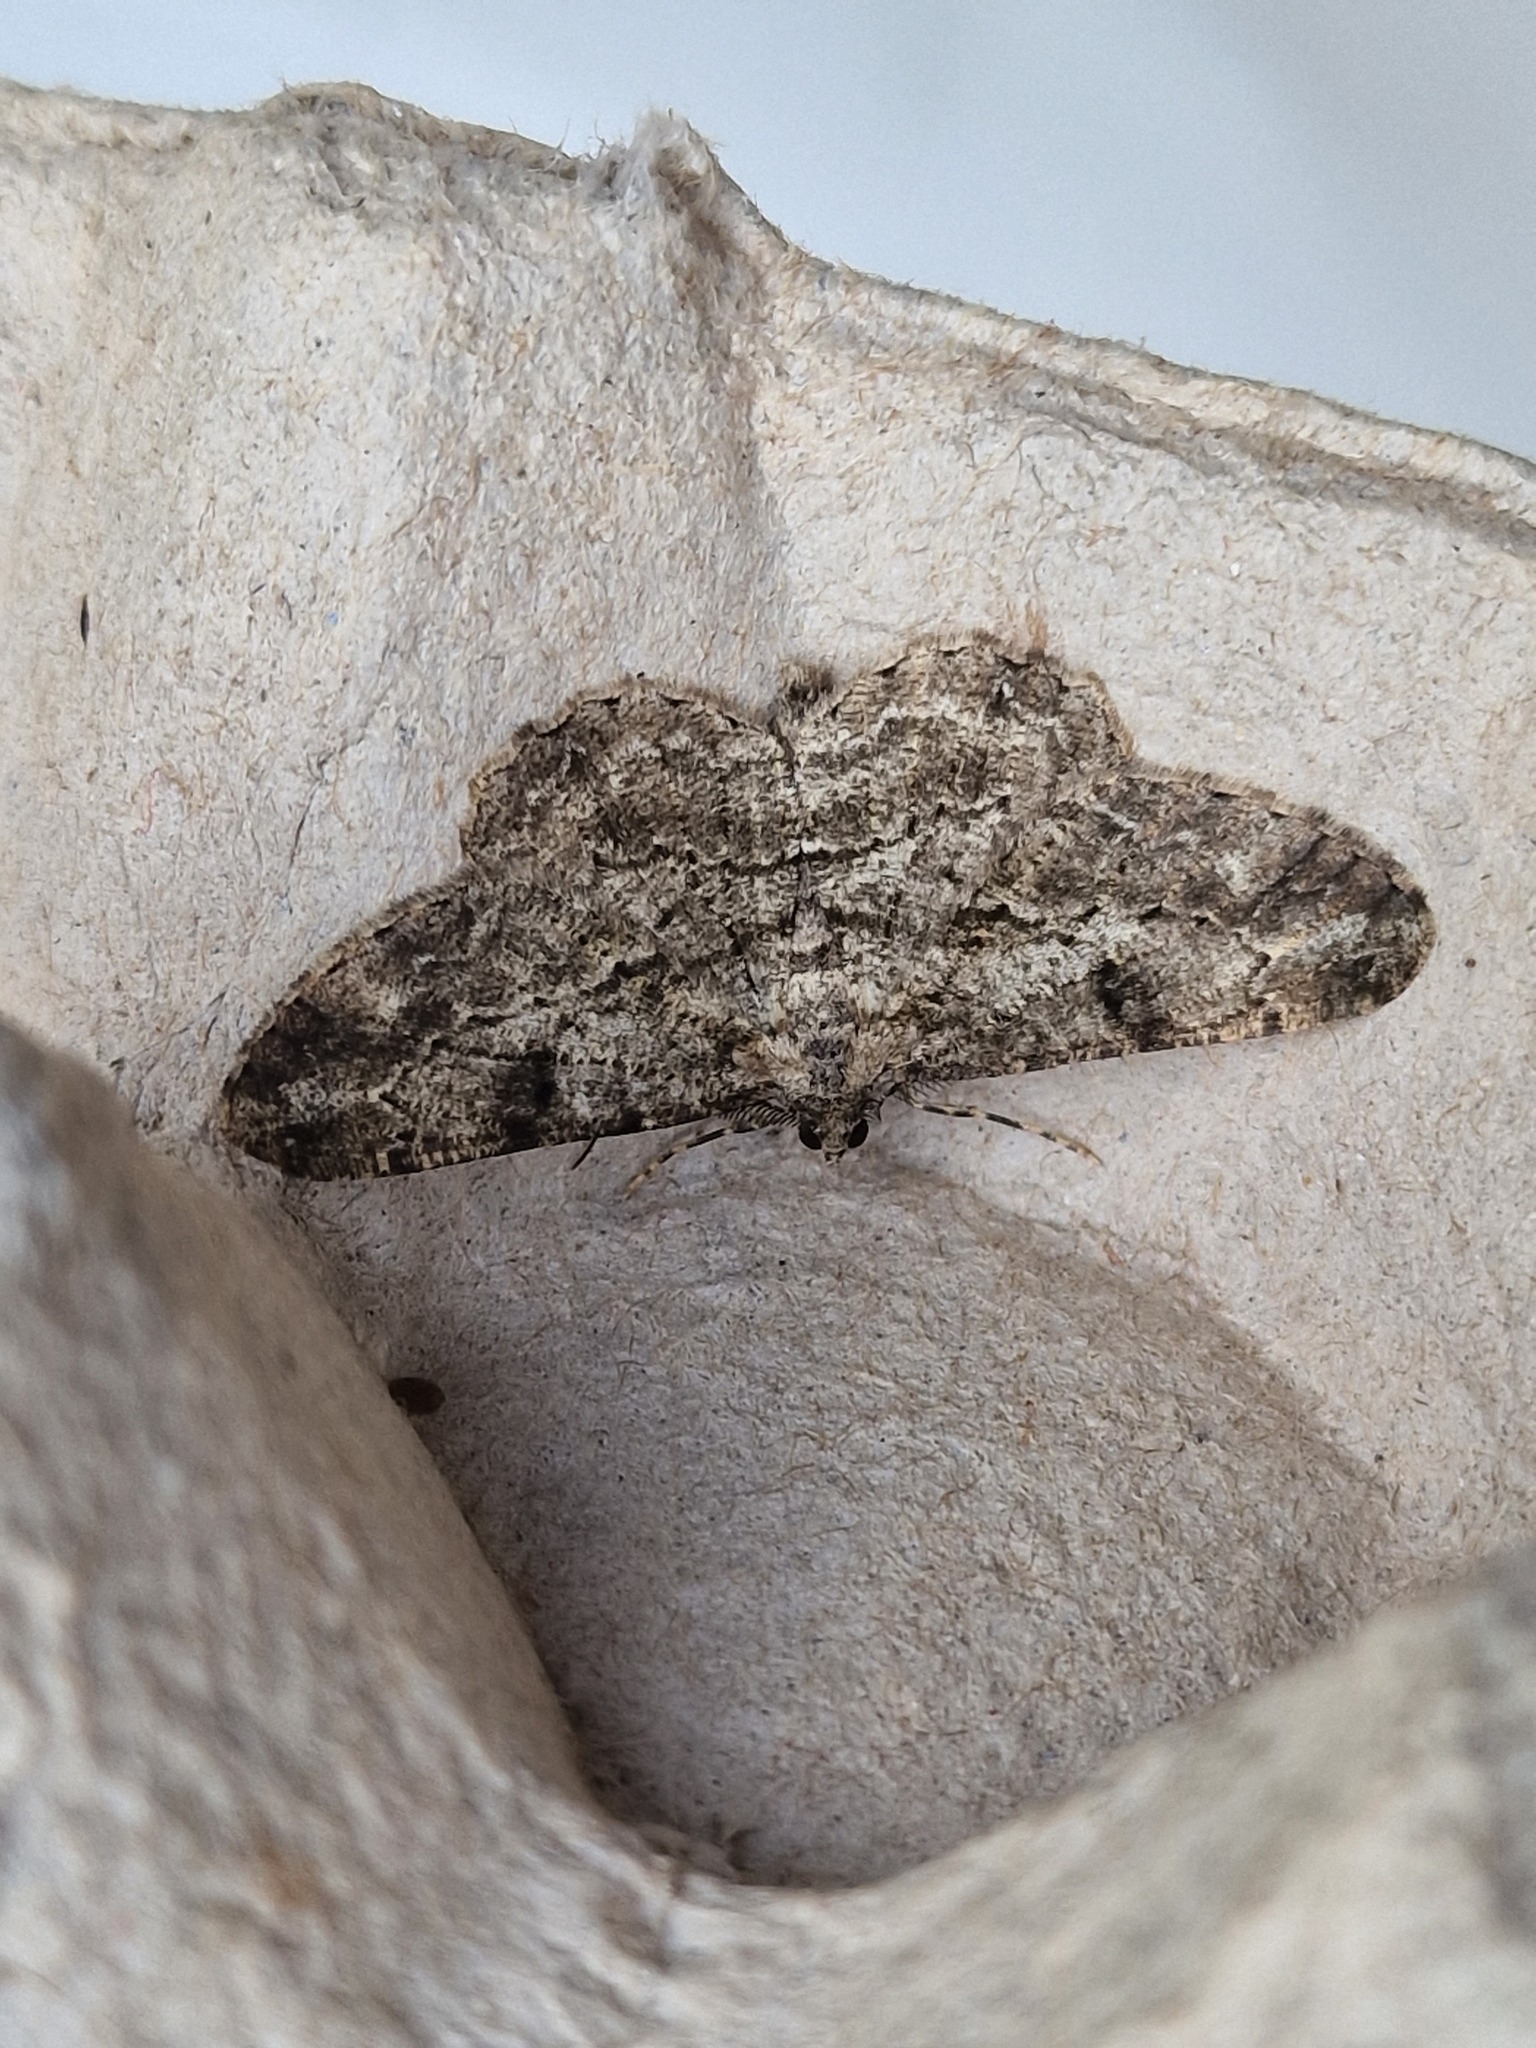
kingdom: Animalia
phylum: Arthropoda
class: Insecta
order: Lepidoptera
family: Geometridae
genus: Peribatodes
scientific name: Peribatodes rhomboidaria
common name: Willow beauty
